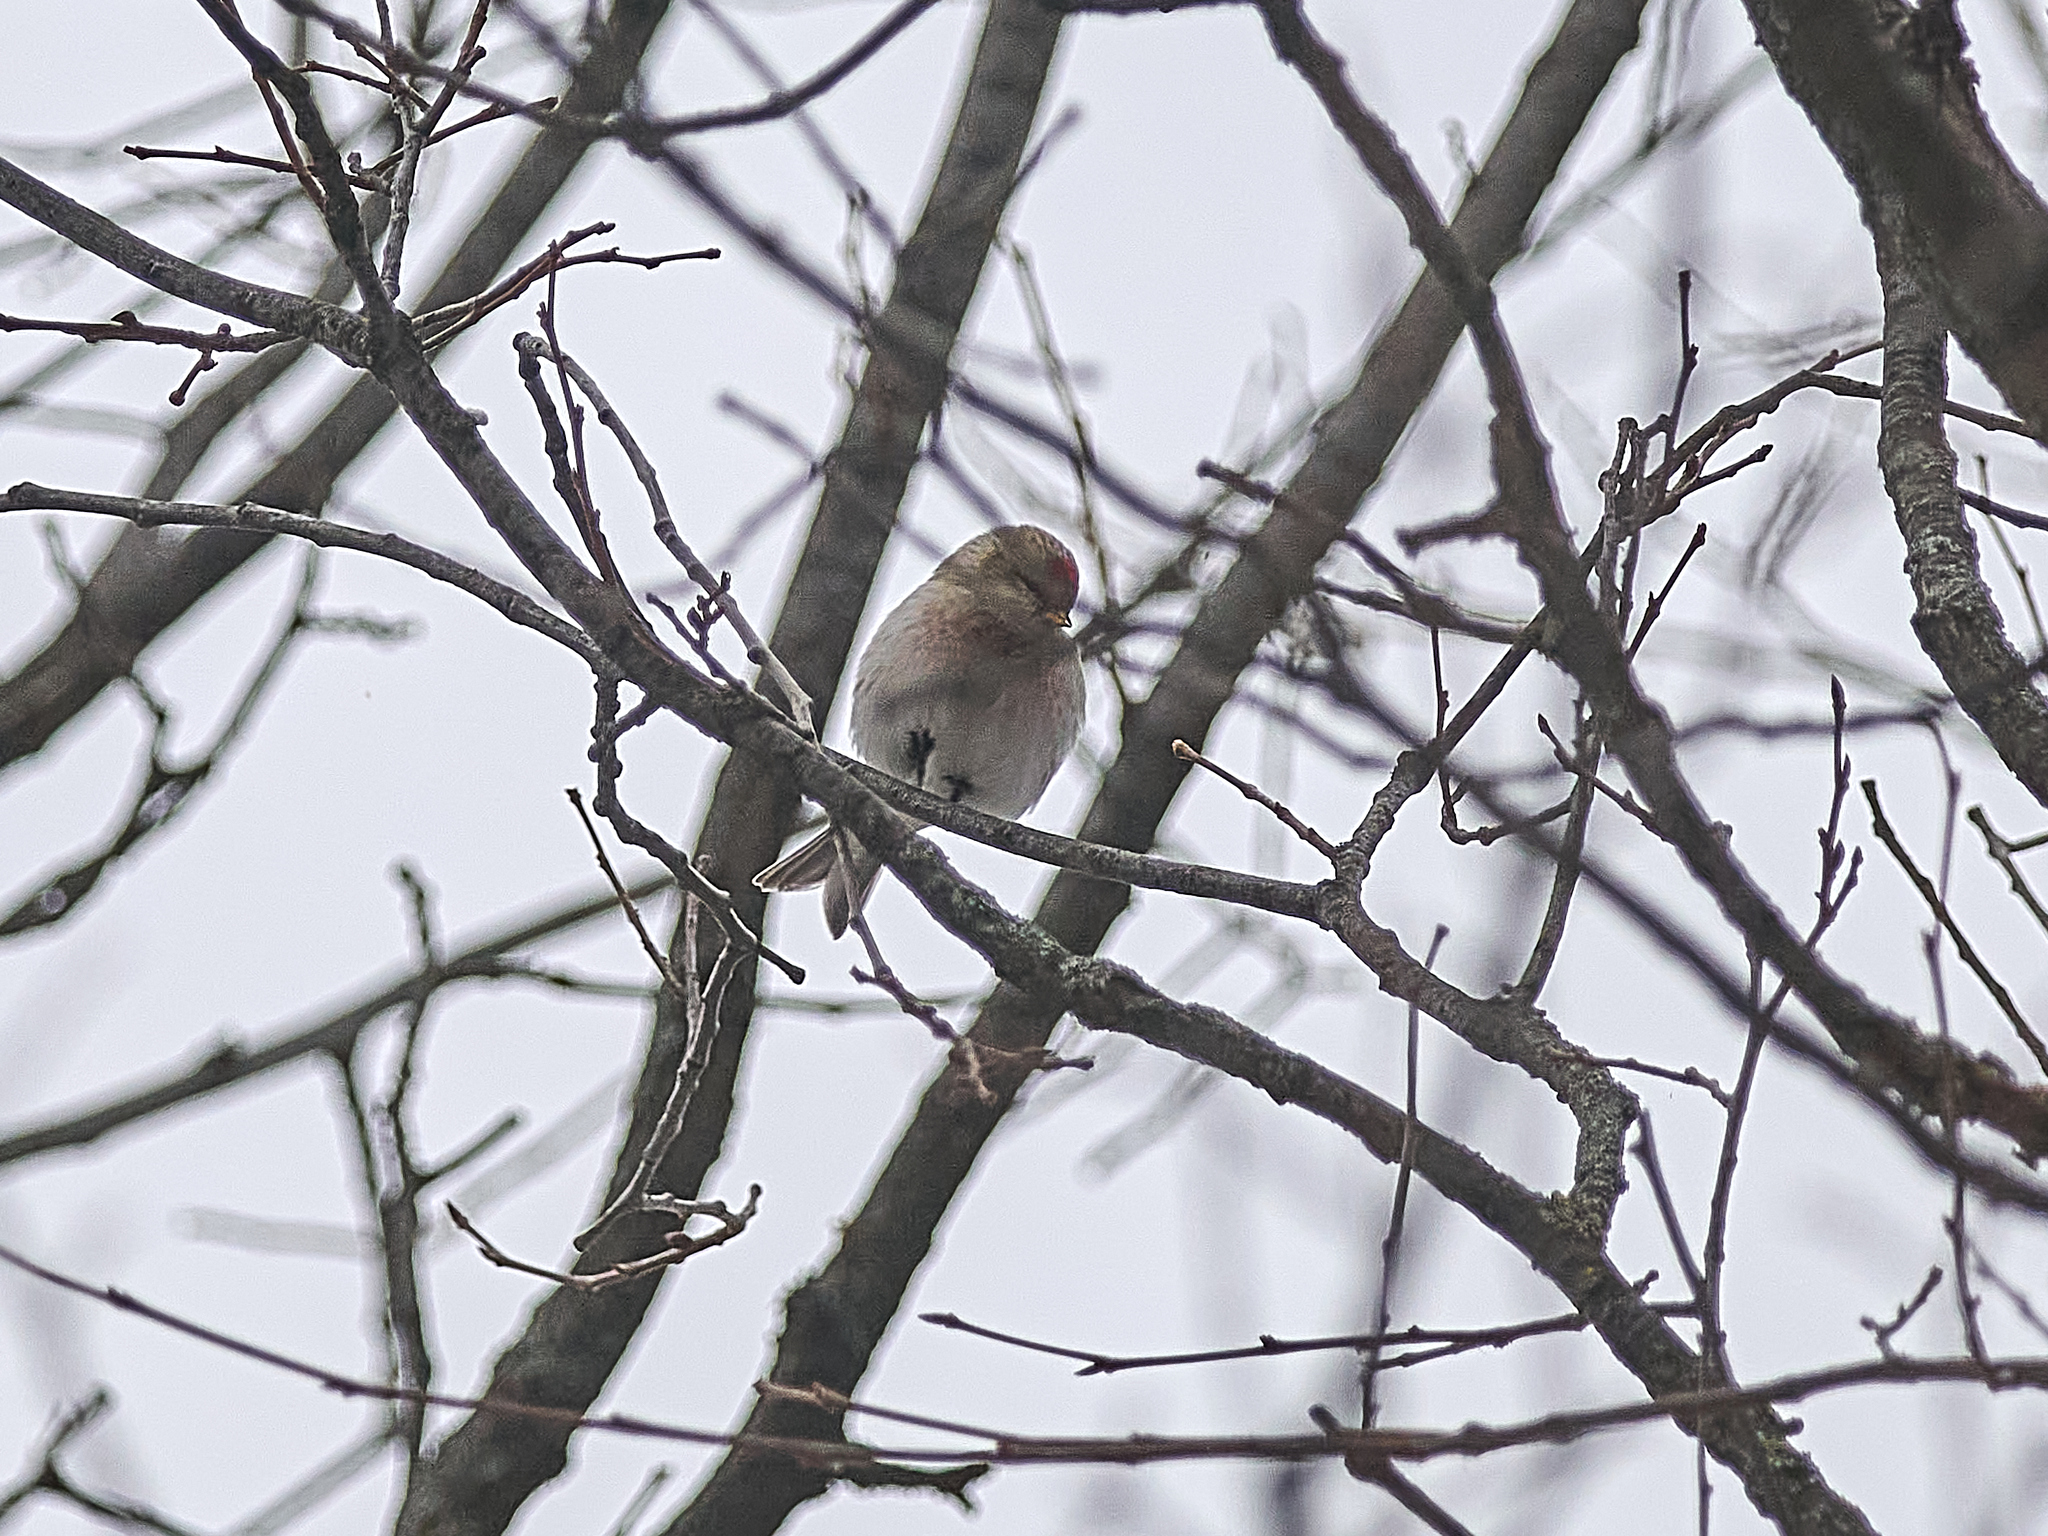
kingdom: Animalia
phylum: Chordata
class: Aves
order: Passeriformes
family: Fringillidae
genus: Acanthis
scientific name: Acanthis hornemanni
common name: Arctic redpoll
